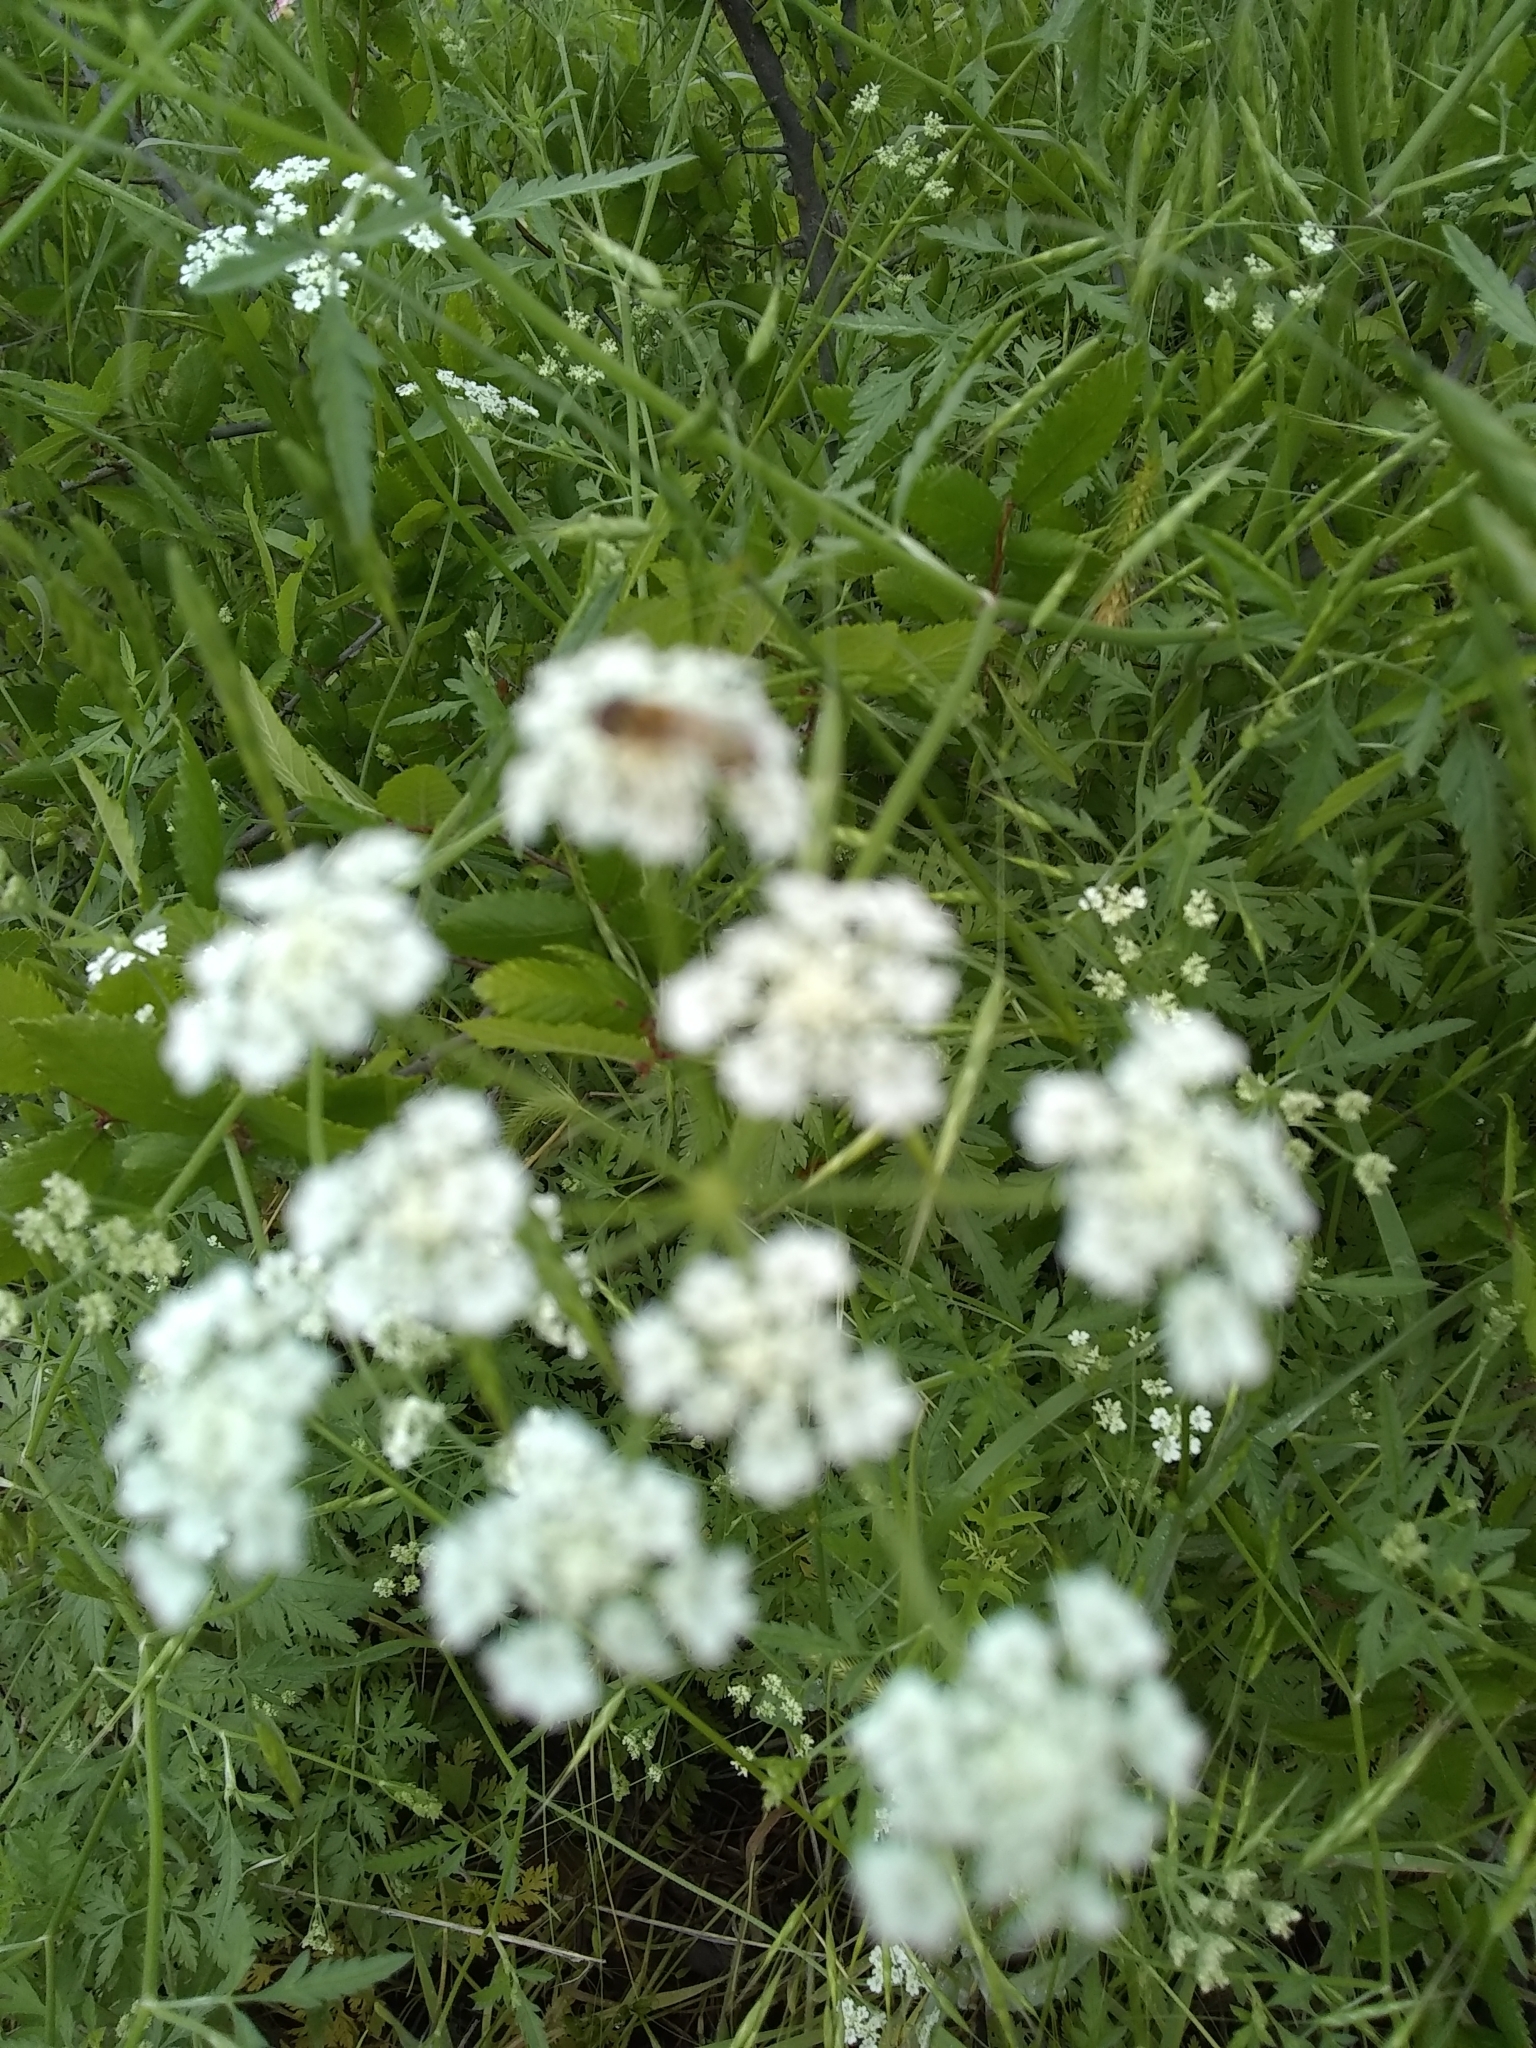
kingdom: Plantae
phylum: Tracheophyta
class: Magnoliopsida
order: Apiales
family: Apiaceae
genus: Torilis
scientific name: Torilis arvensis
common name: Spreading hedge-parsley
